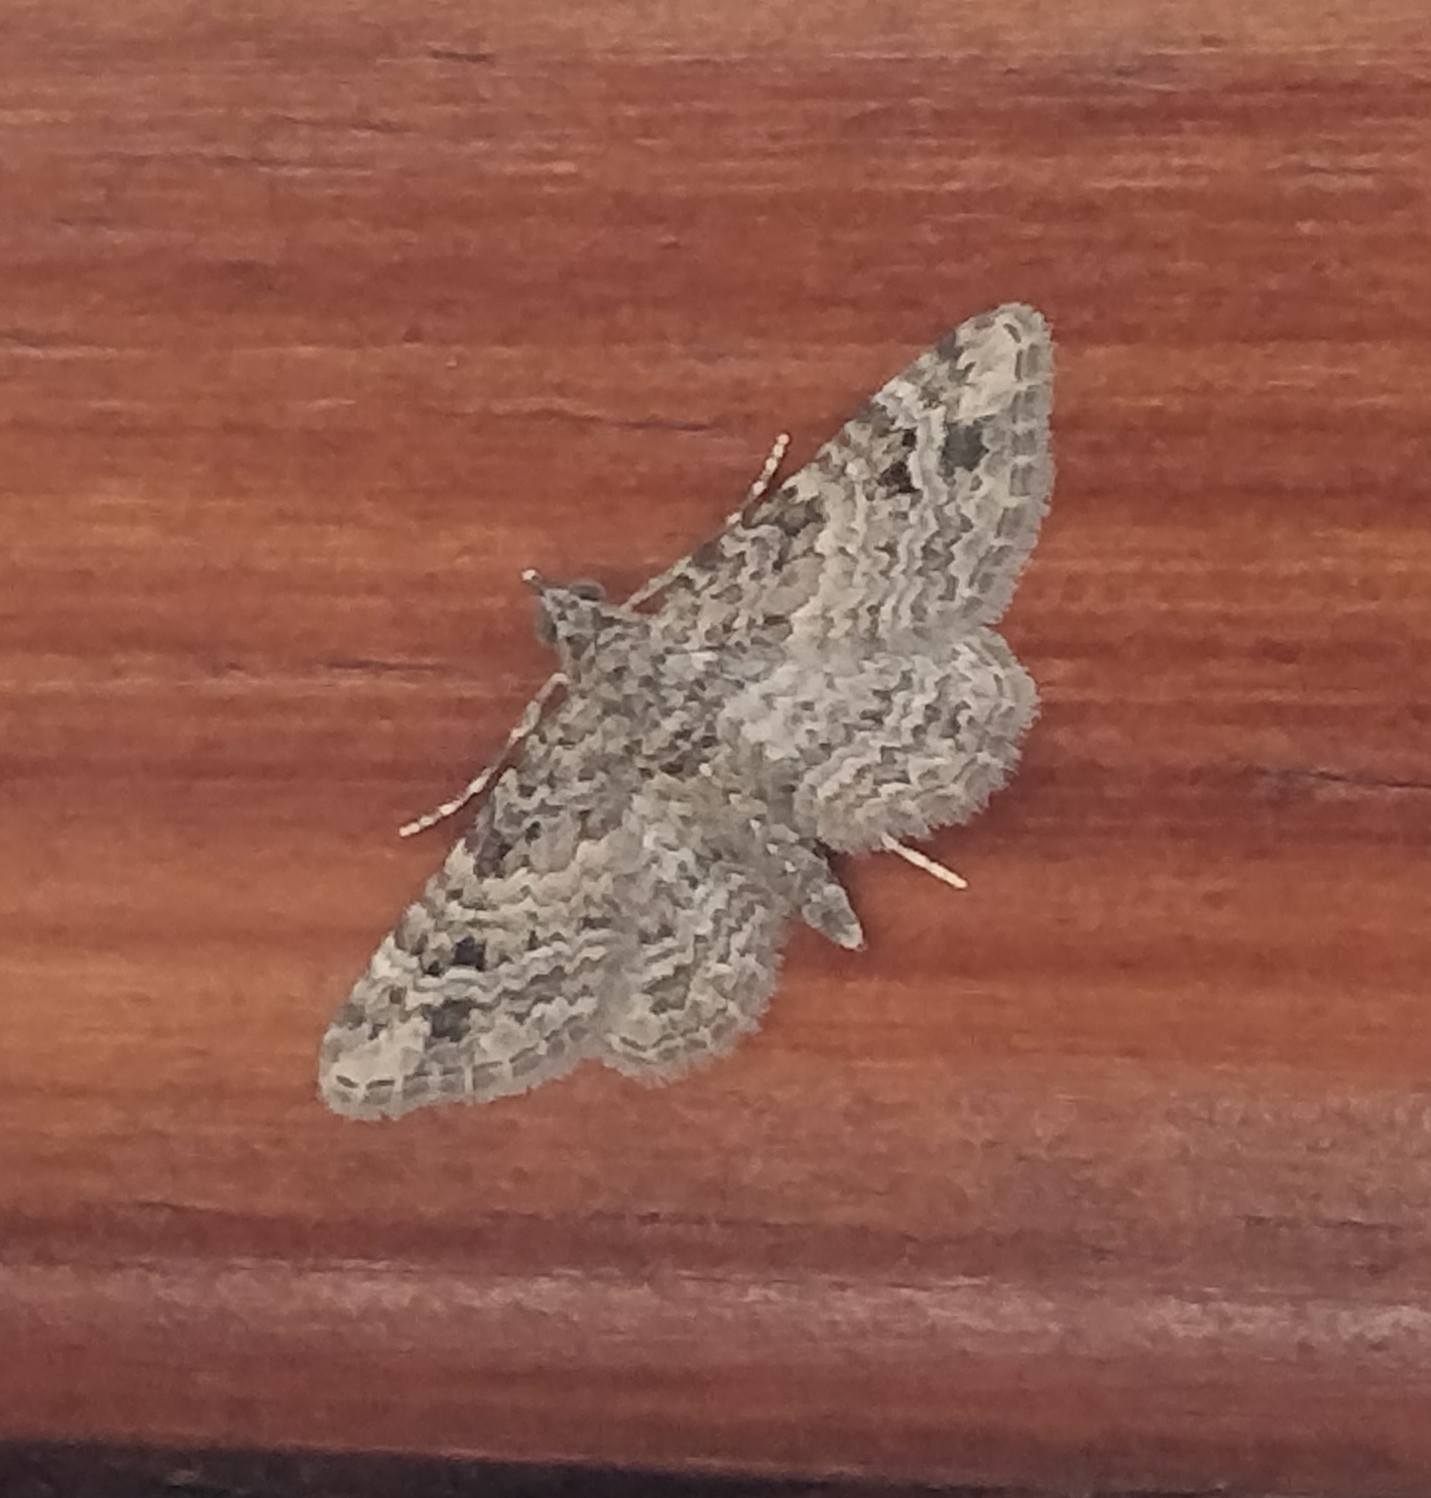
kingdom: Animalia
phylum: Arthropoda
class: Insecta
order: Lepidoptera
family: Geometridae
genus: Gymnoscelis
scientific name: Gymnoscelis rufifasciata
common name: Double-striped pug
